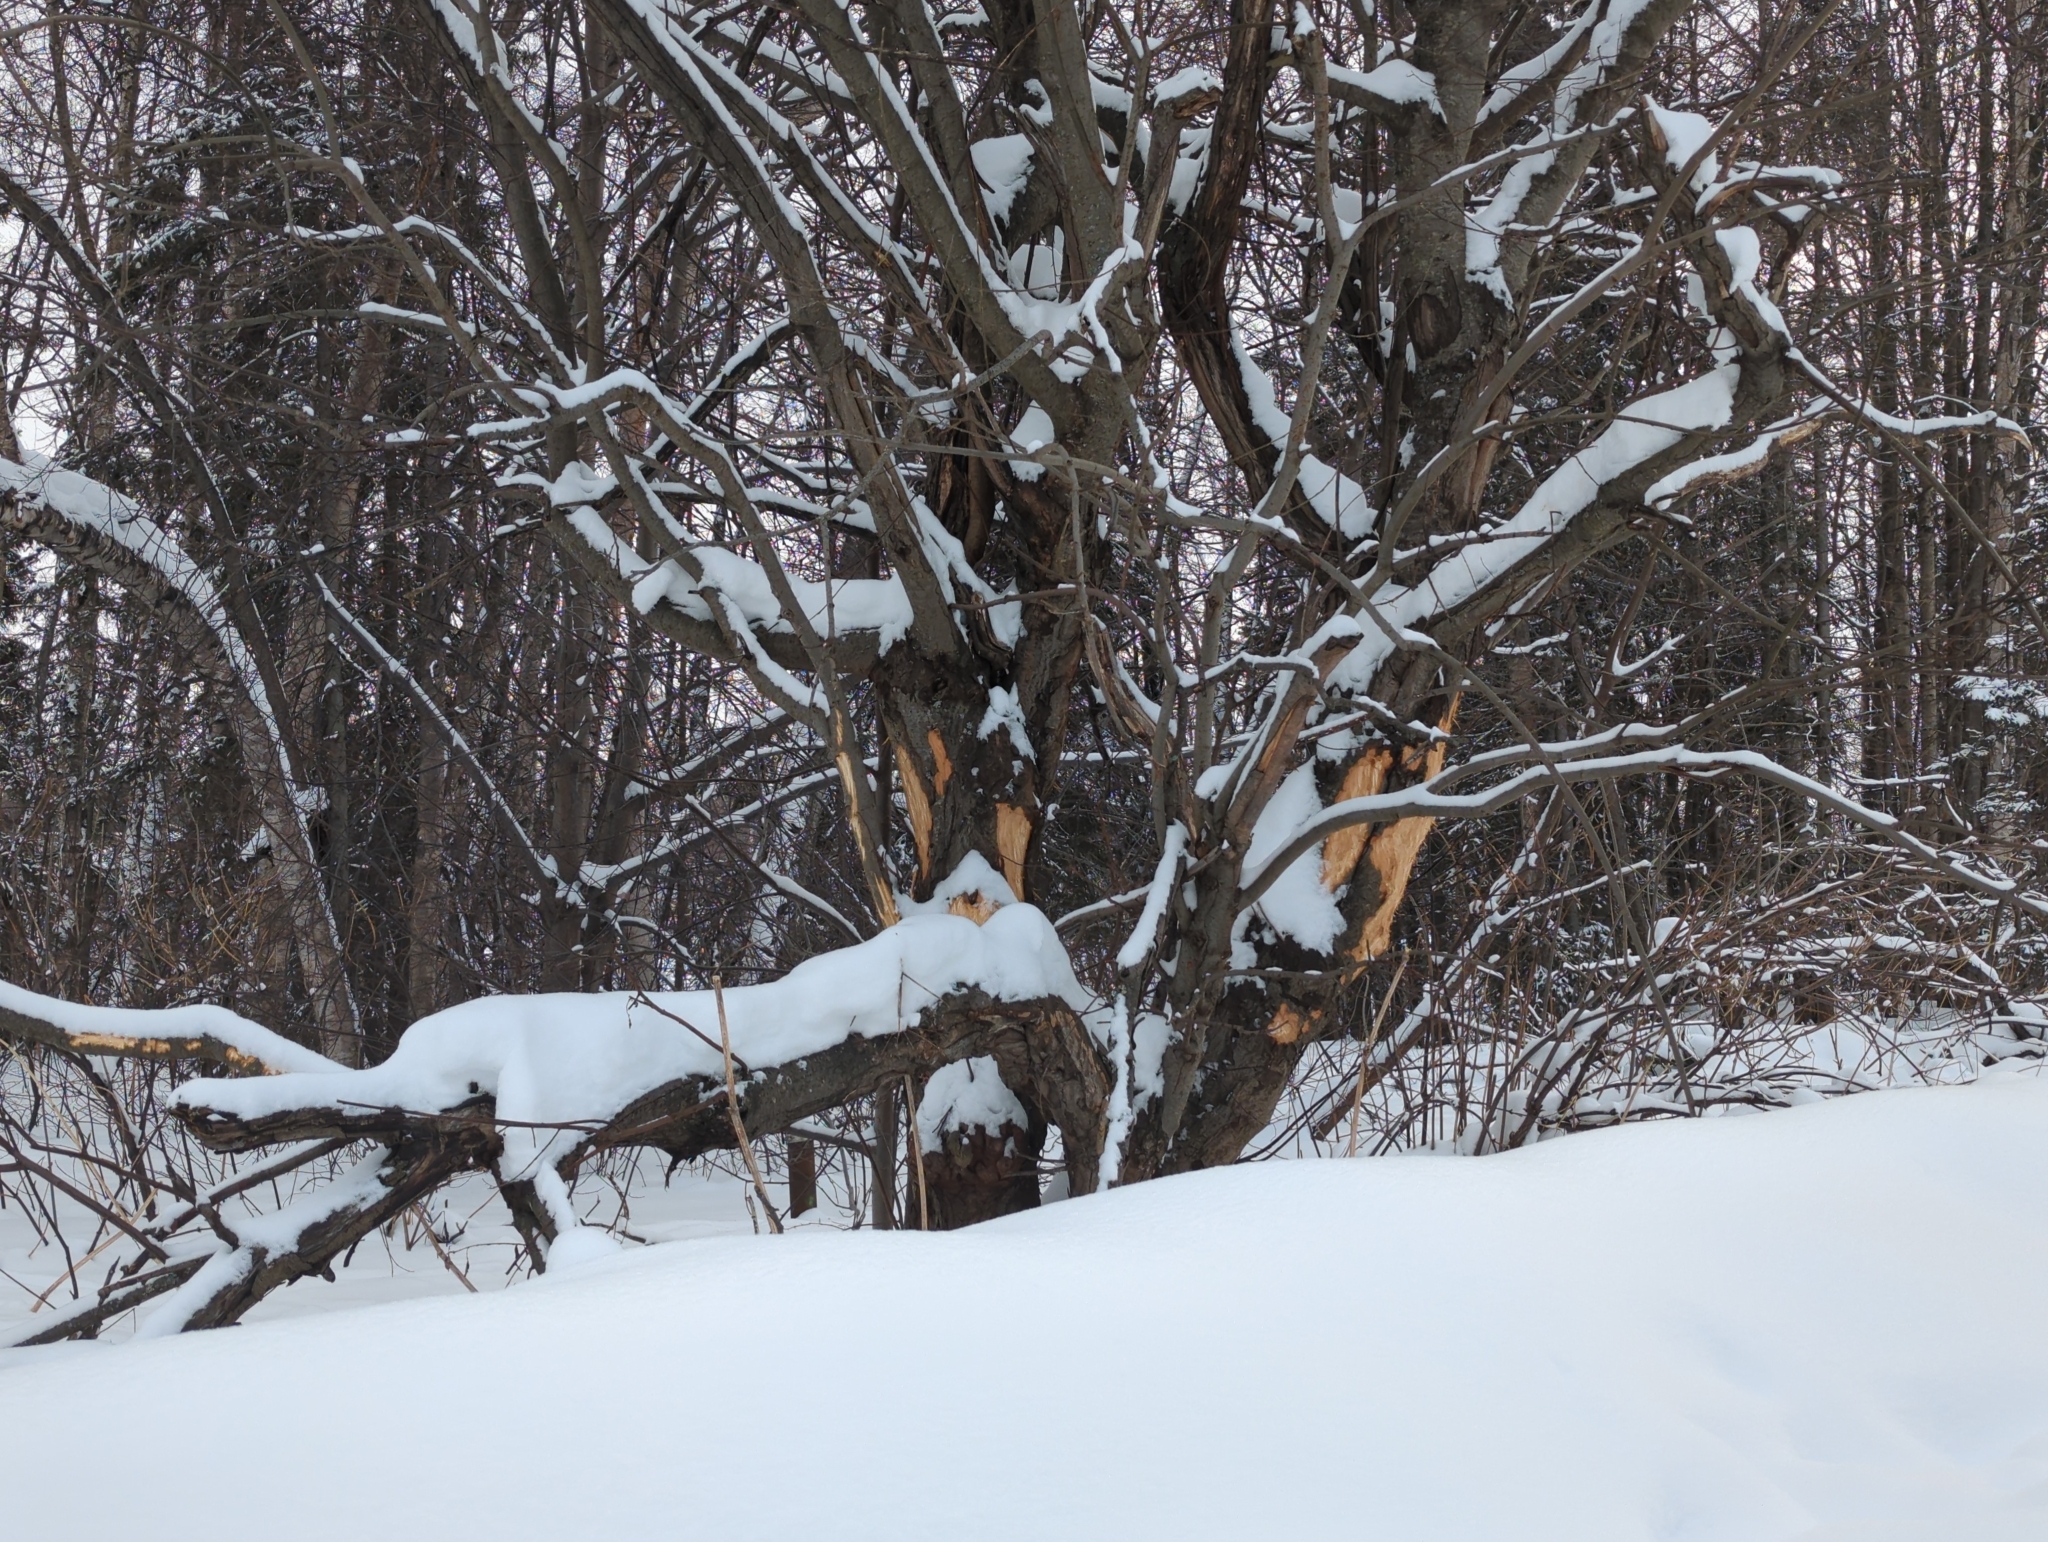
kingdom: Animalia
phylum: Chordata
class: Mammalia
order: Artiodactyla
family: Cervidae
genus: Alces
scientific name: Alces alces
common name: Moose
